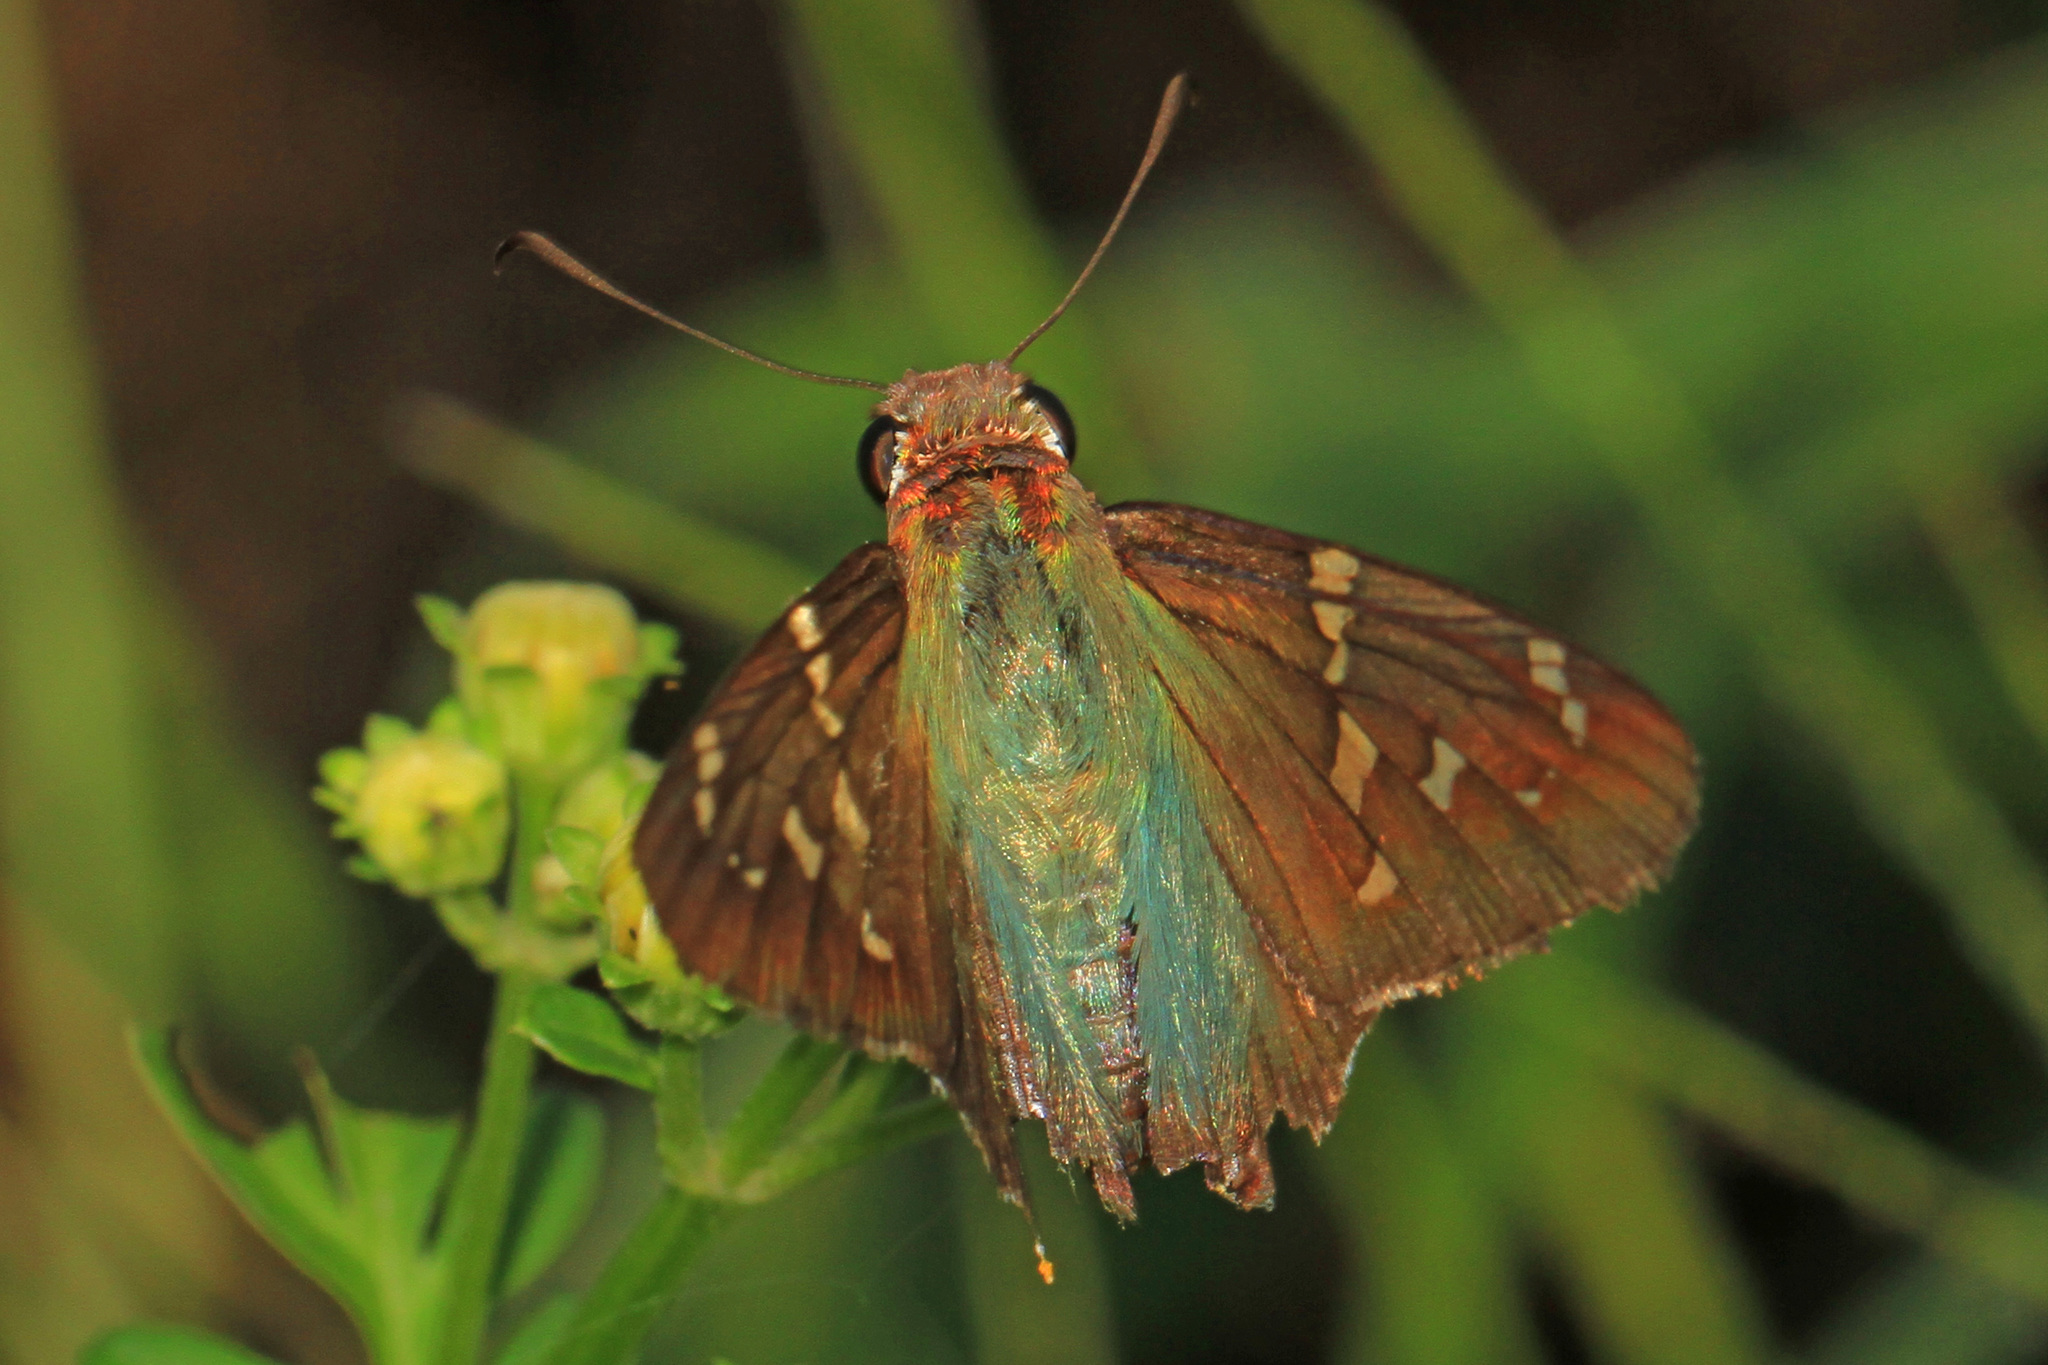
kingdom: Animalia
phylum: Arthropoda
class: Insecta
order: Lepidoptera
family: Hesperiidae
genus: Urbanus
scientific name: Urbanus proteus
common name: Long-tailed skipper
